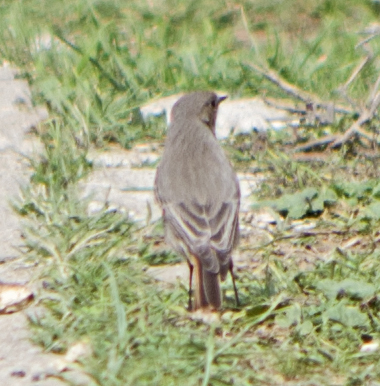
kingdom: Animalia
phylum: Chordata
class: Aves
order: Passeriformes
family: Muscicapidae
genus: Phoenicurus
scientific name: Phoenicurus ochruros
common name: Black redstart
